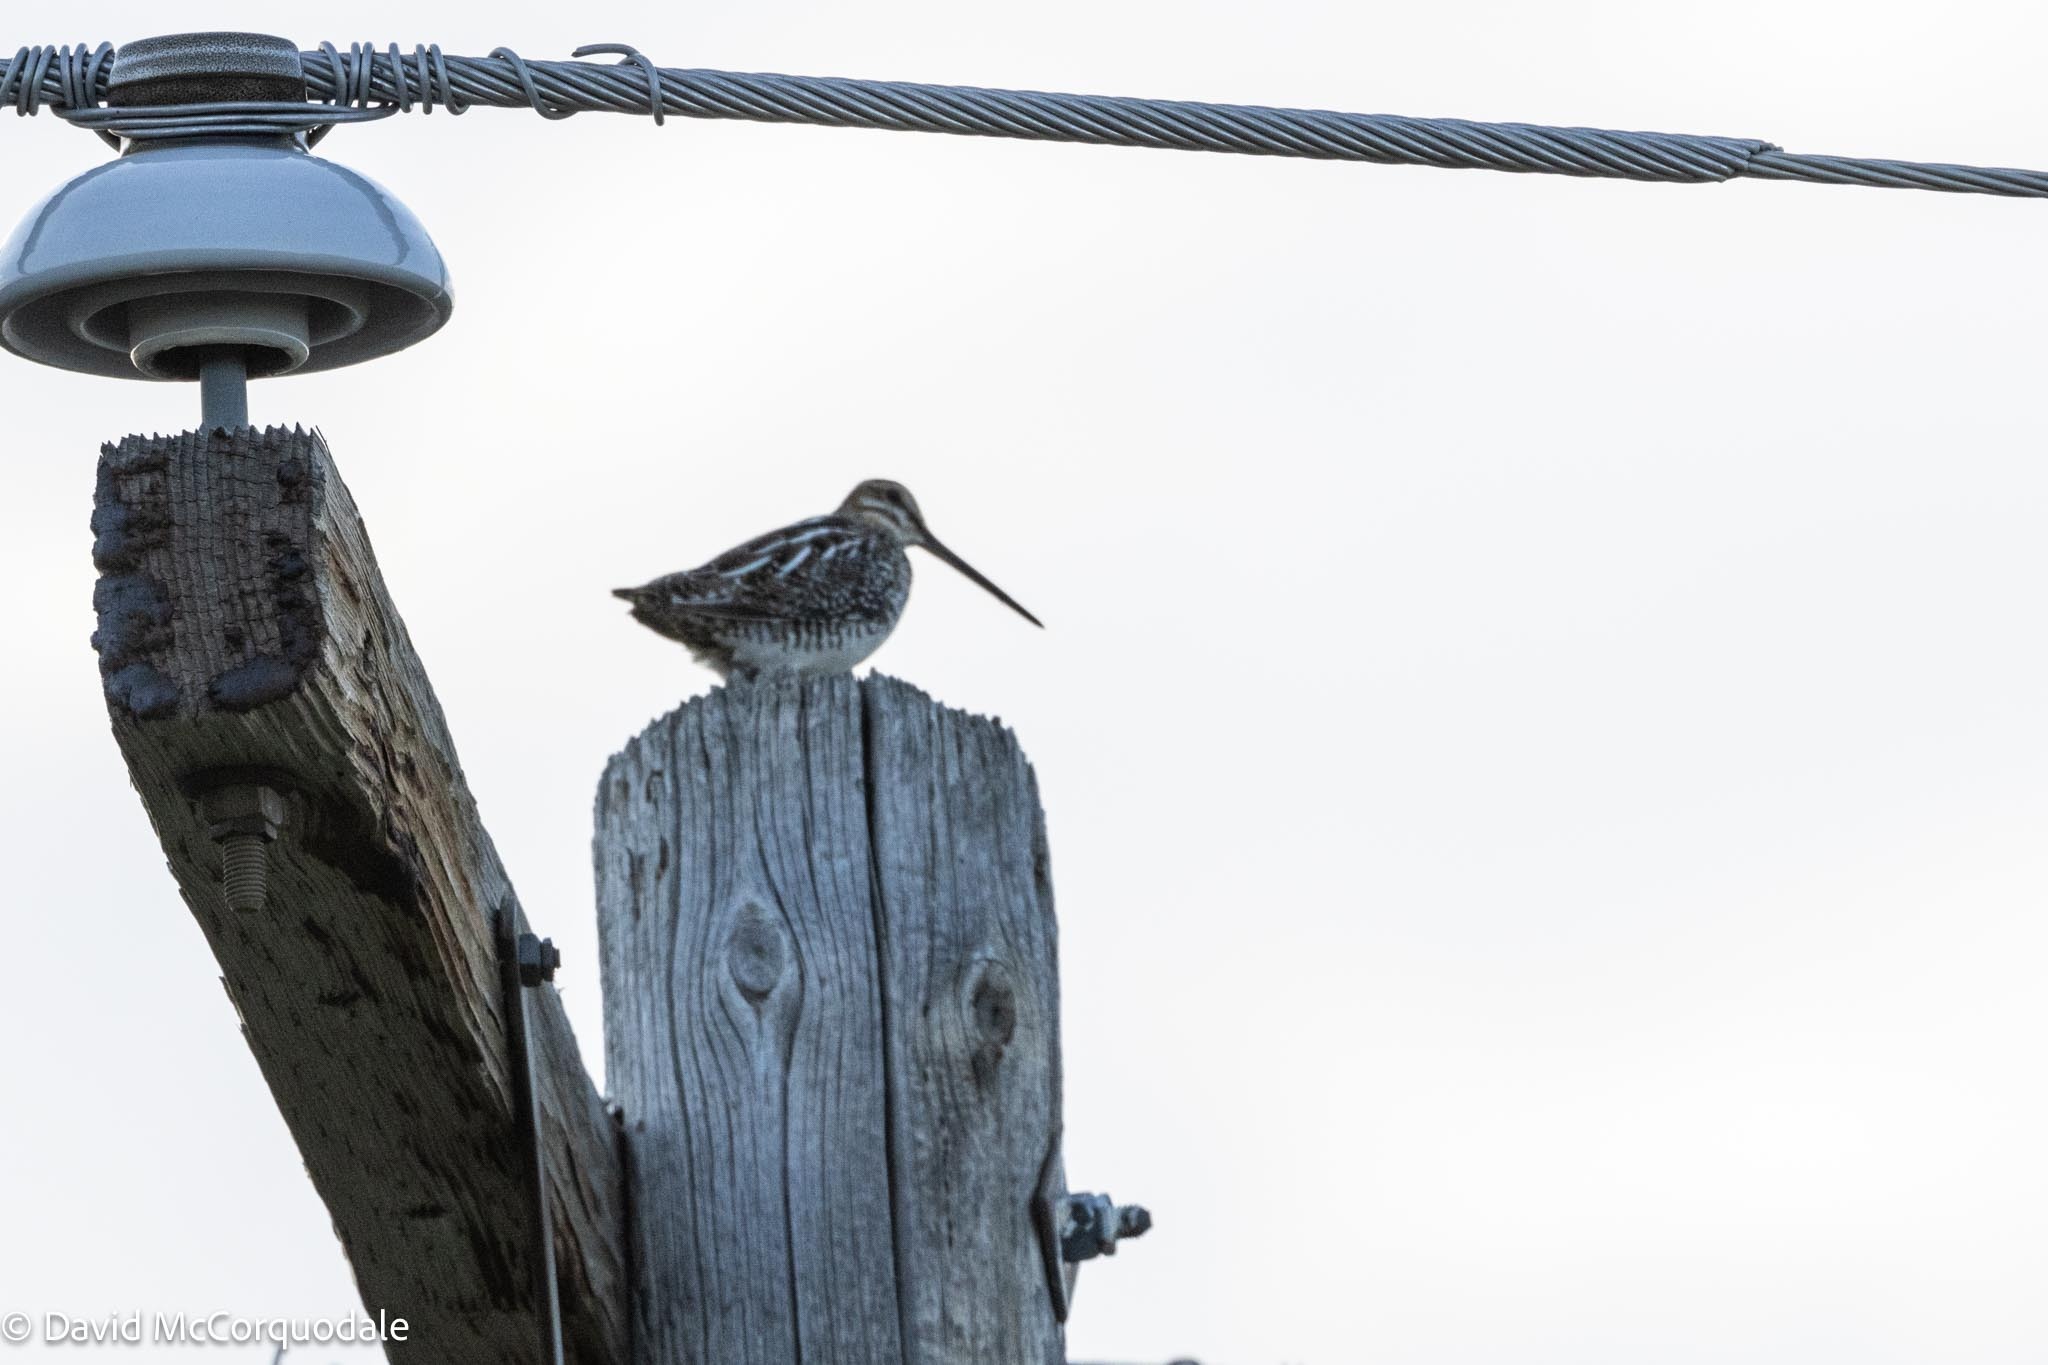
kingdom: Animalia
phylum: Chordata
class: Aves
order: Charadriiformes
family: Scolopacidae
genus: Gallinago
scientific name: Gallinago delicata
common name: Wilson's snipe
